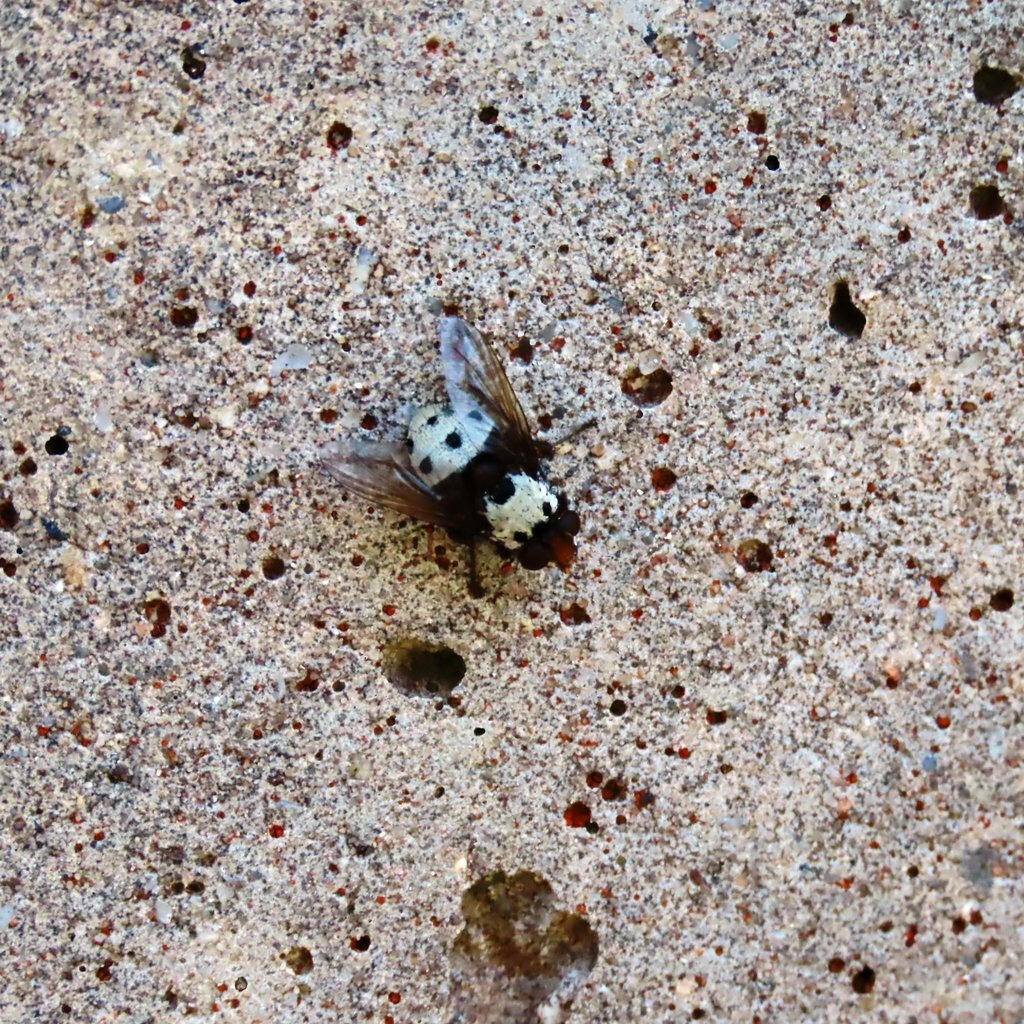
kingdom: Animalia
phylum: Arthropoda
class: Insecta
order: Diptera
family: Tachinidae
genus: Metaphryno
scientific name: Metaphryno bella
